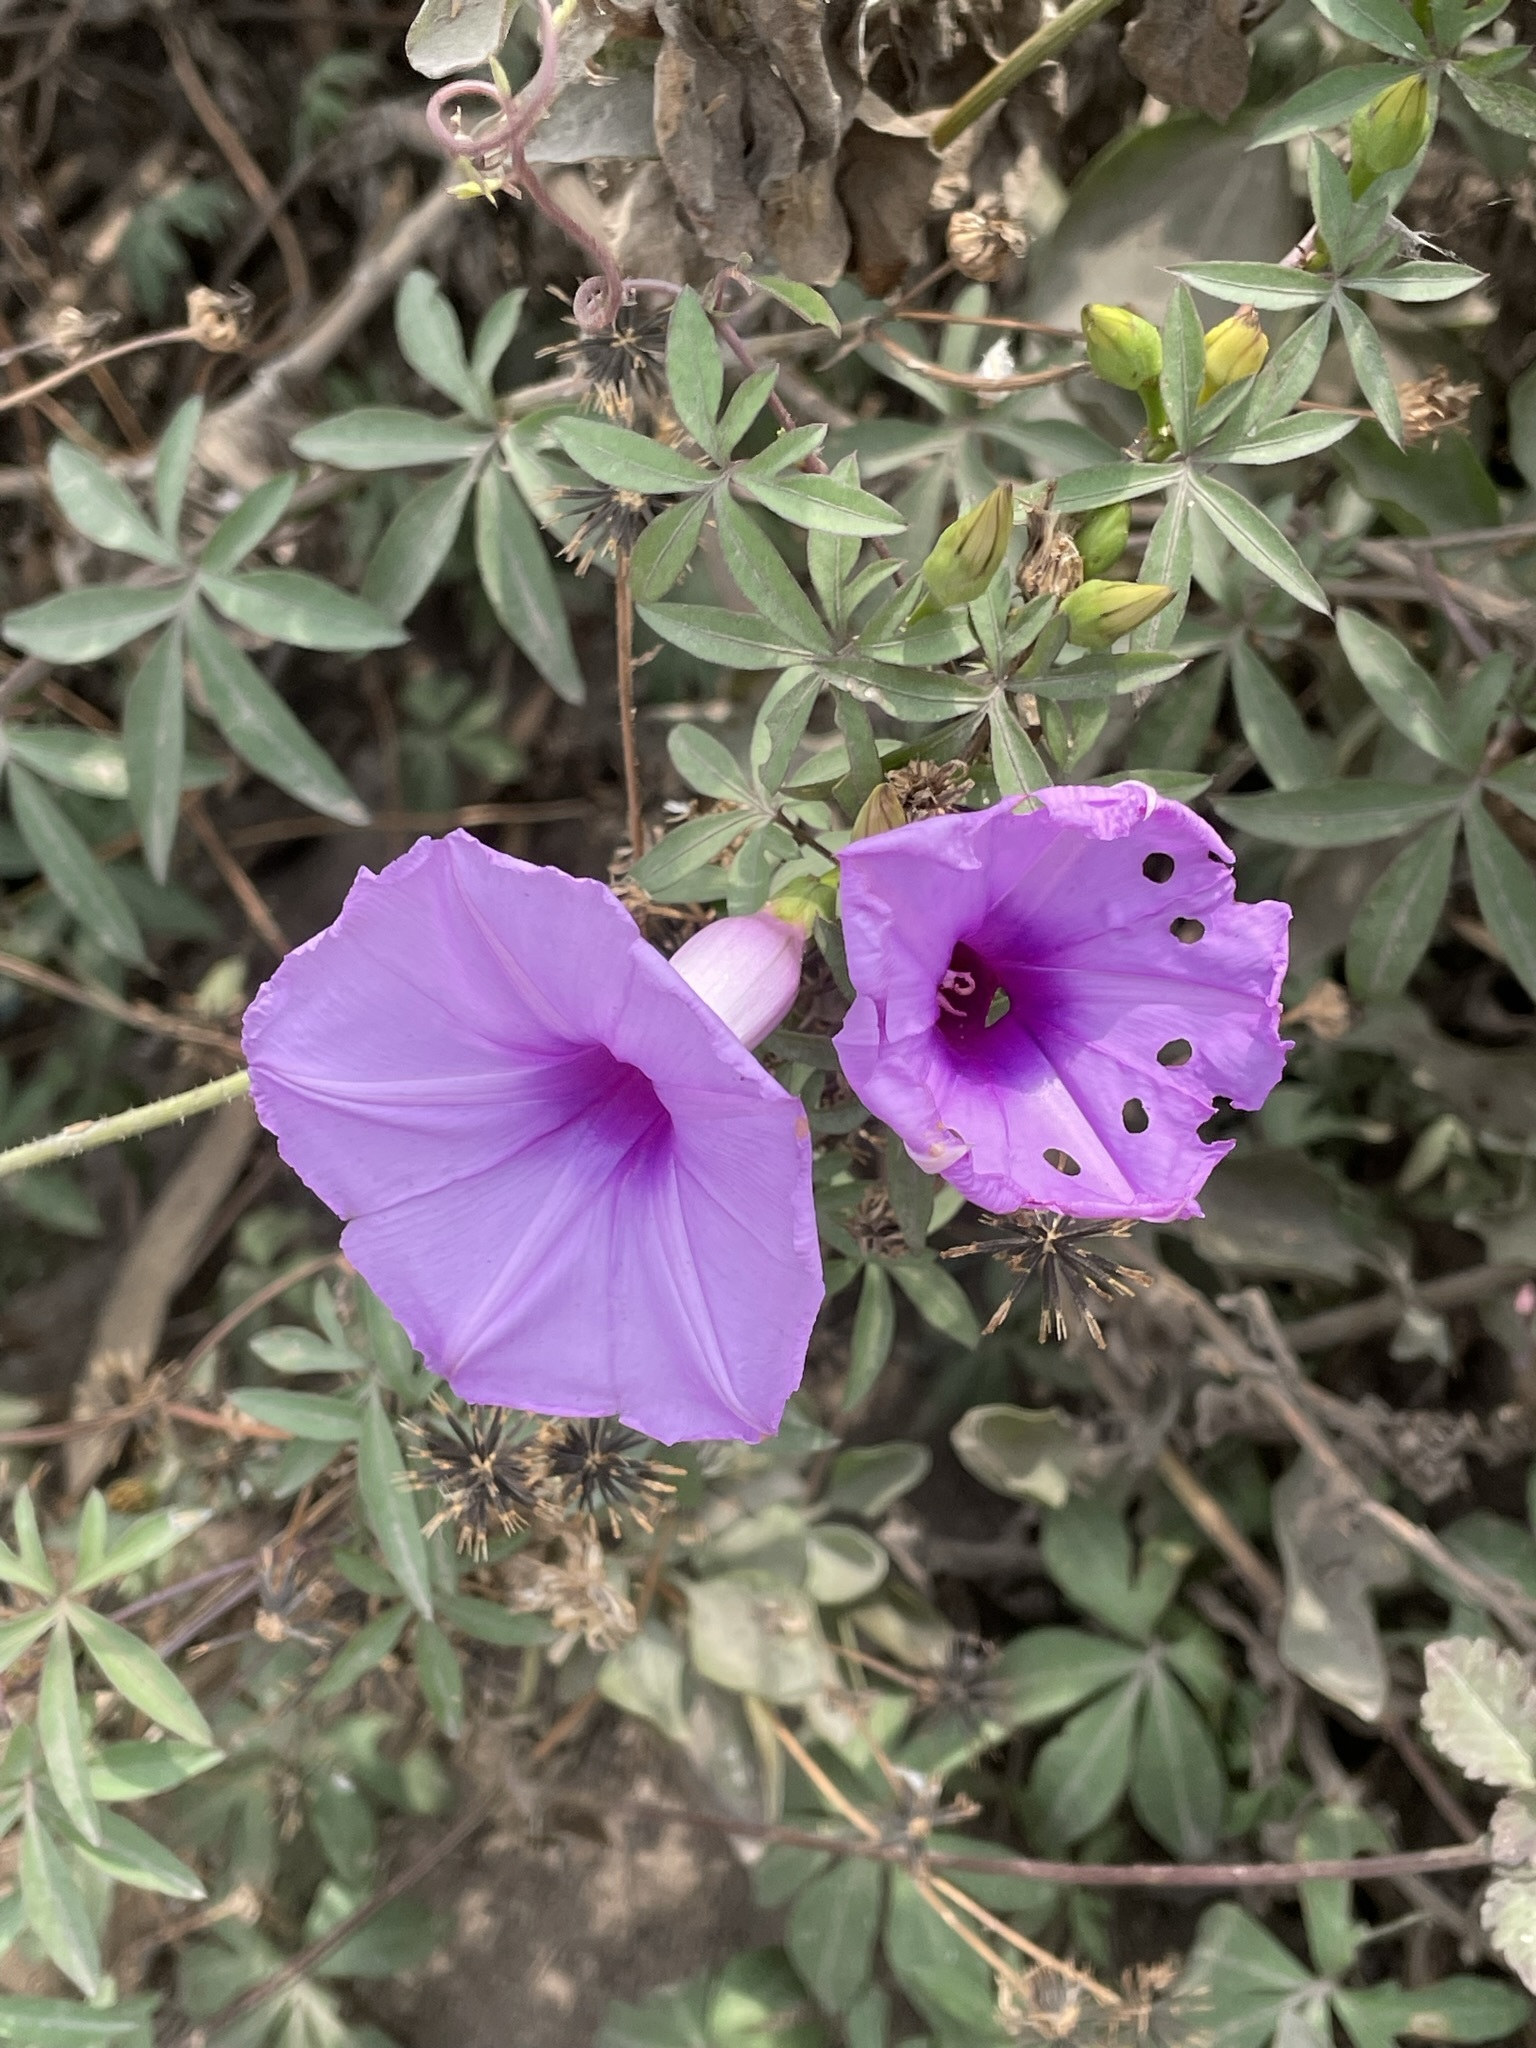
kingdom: Plantae
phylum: Tracheophyta
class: Magnoliopsida
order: Solanales
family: Convolvulaceae
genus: Ipomoea
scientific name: Ipomoea cairica
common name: Mile a minute vine
